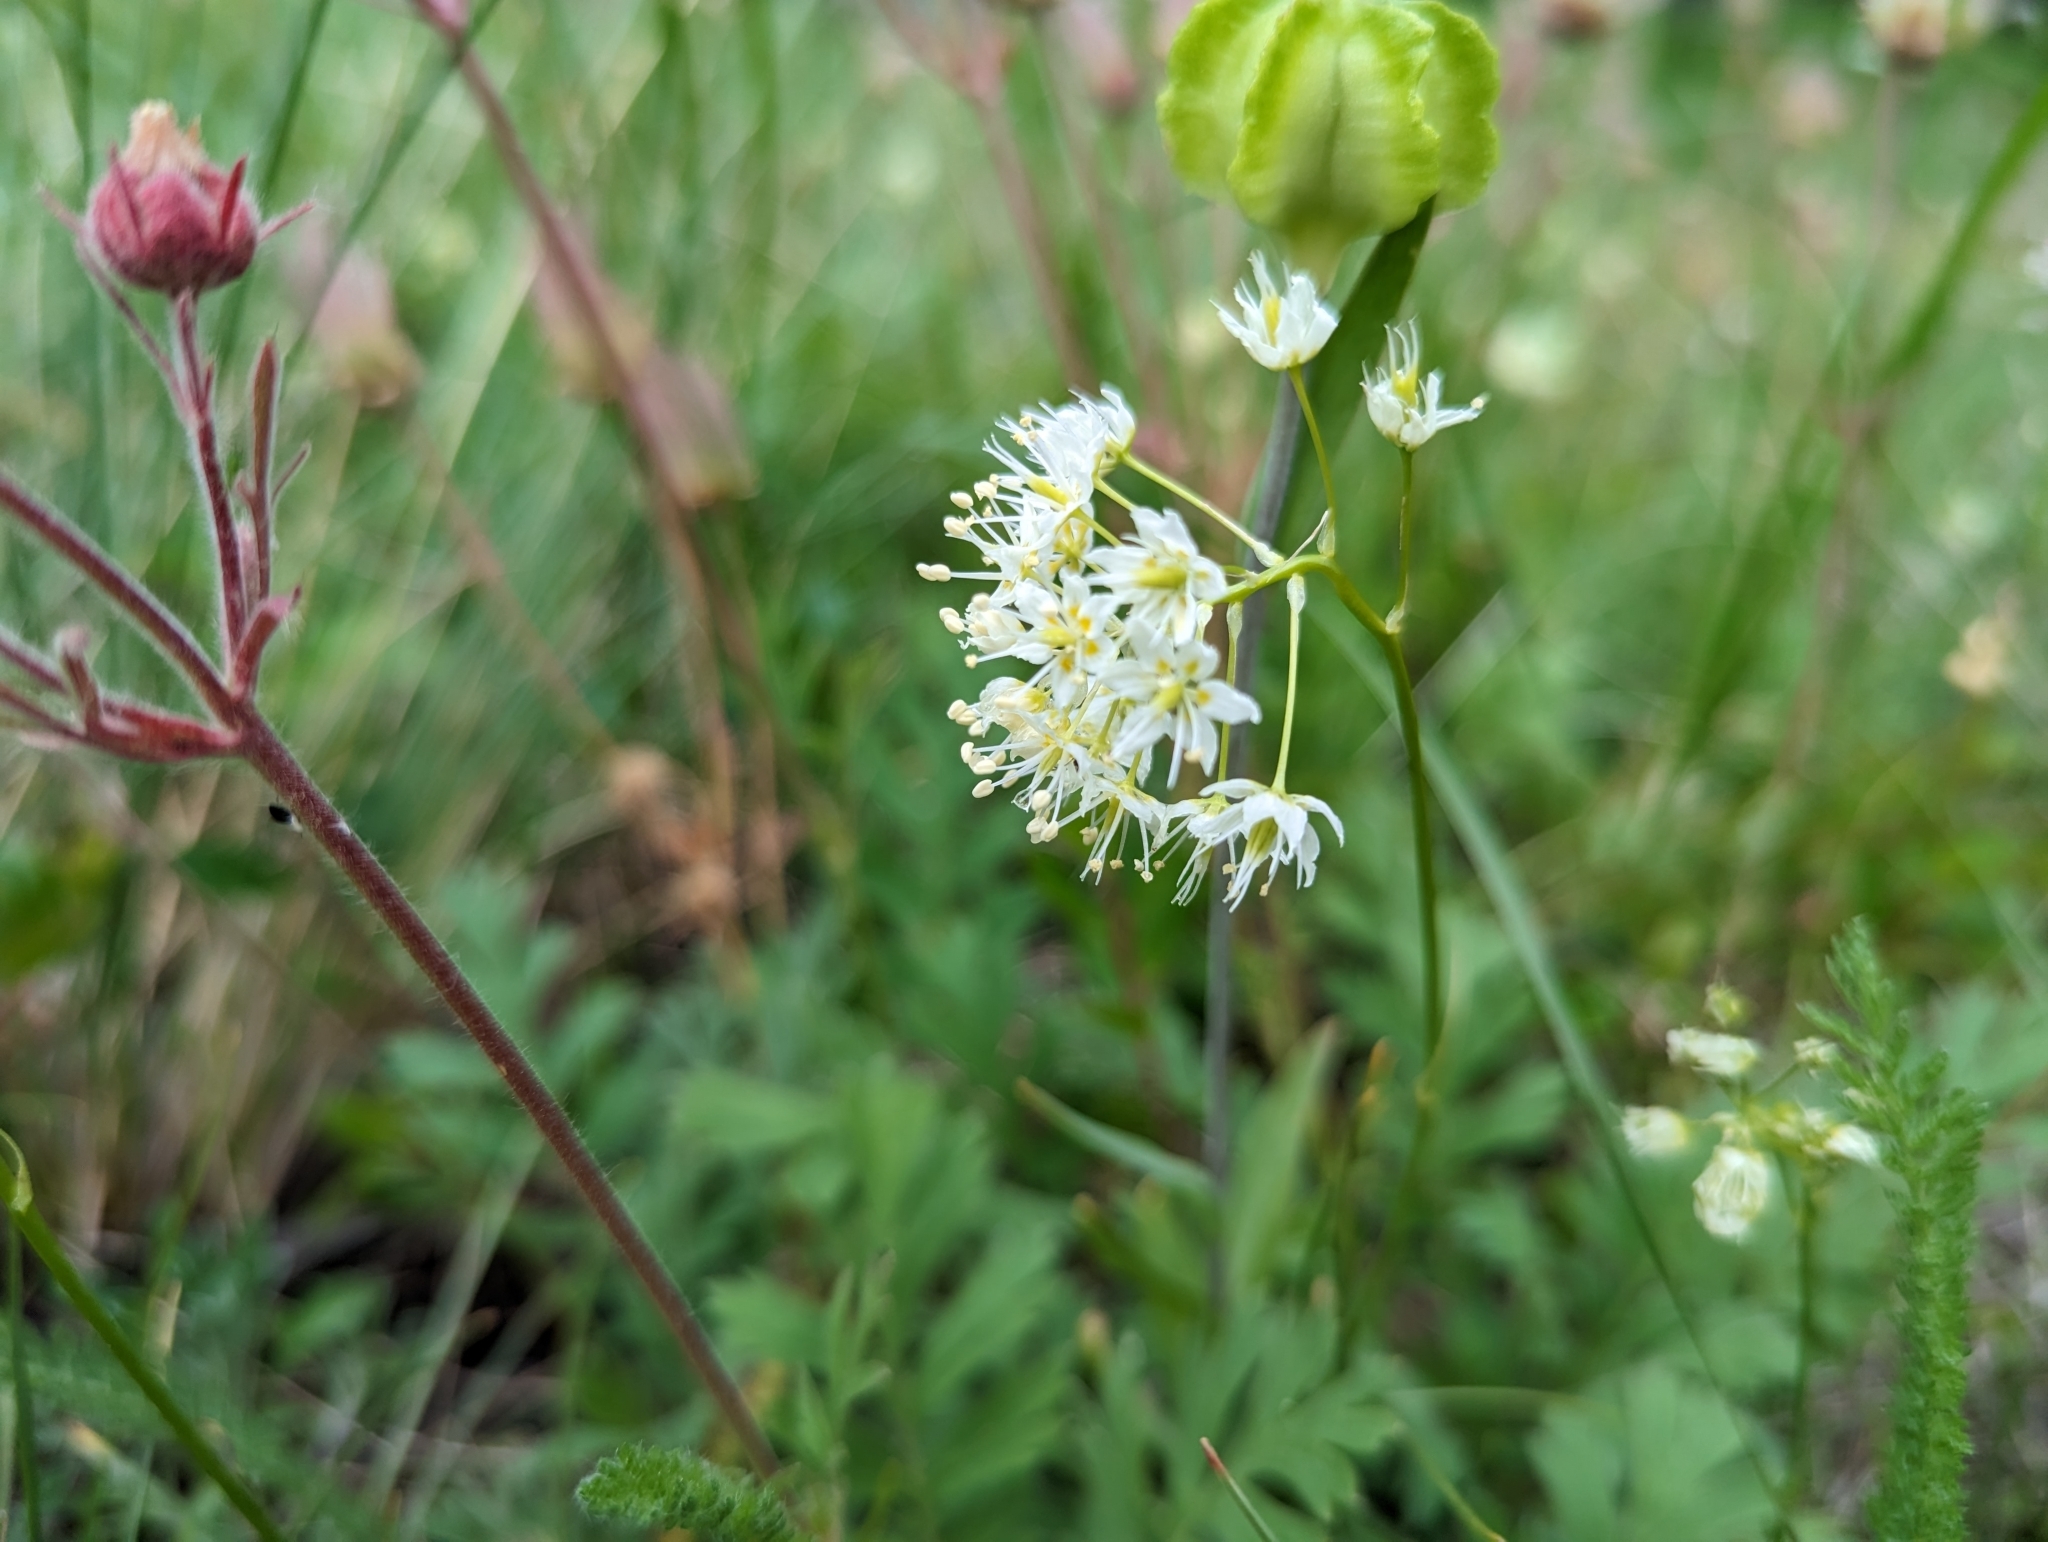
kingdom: Plantae
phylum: Tracheophyta
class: Liliopsida
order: Liliales
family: Melanthiaceae
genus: Toxicoscordion
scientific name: Toxicoscordion venenosum
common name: Meadow death camas
